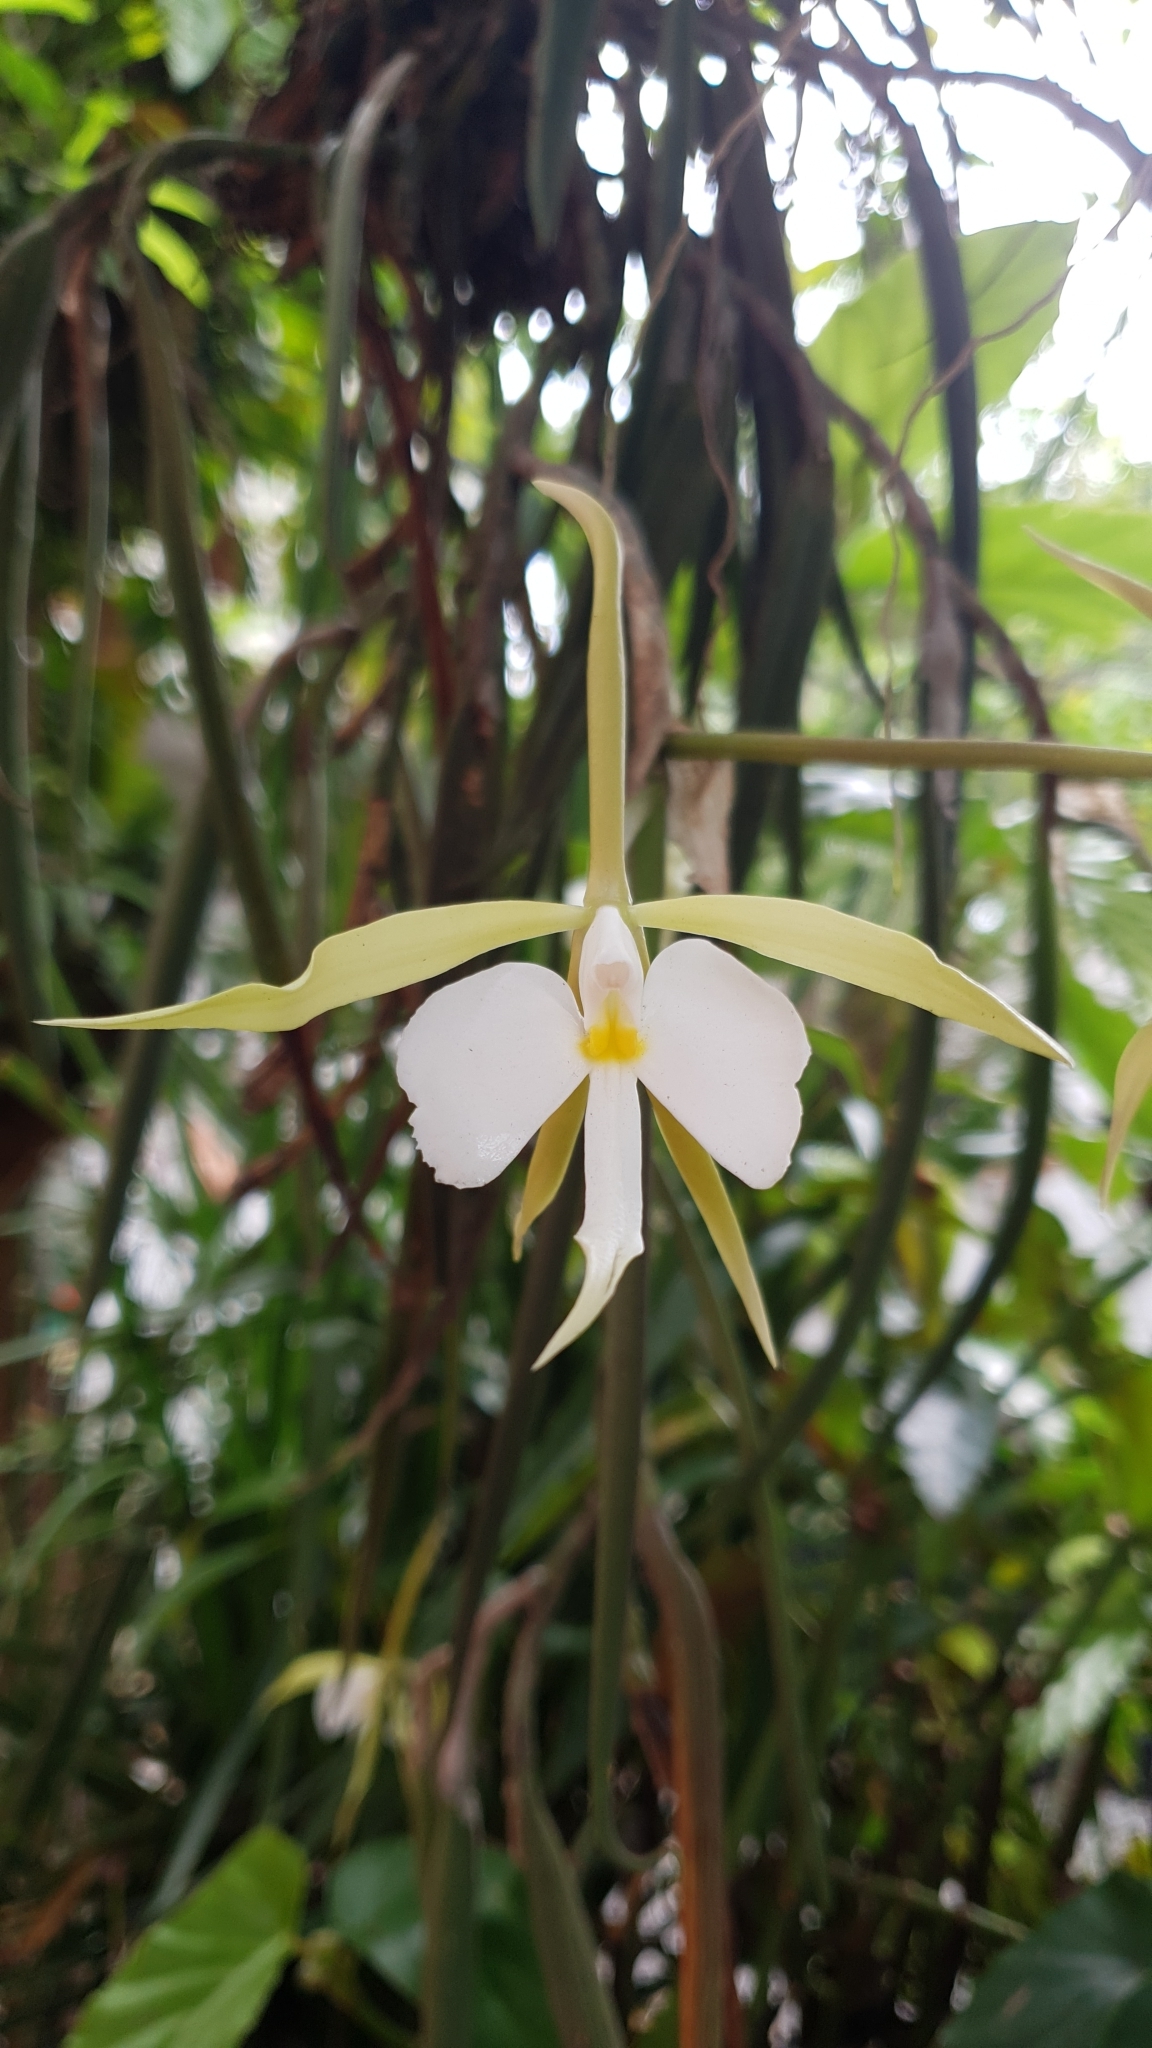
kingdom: Plantae
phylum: Tracheophyta
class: Liliopsida
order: Asparagales
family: Orchidaceae
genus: Epidendrum
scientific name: Epidendrum parkinsonianum
